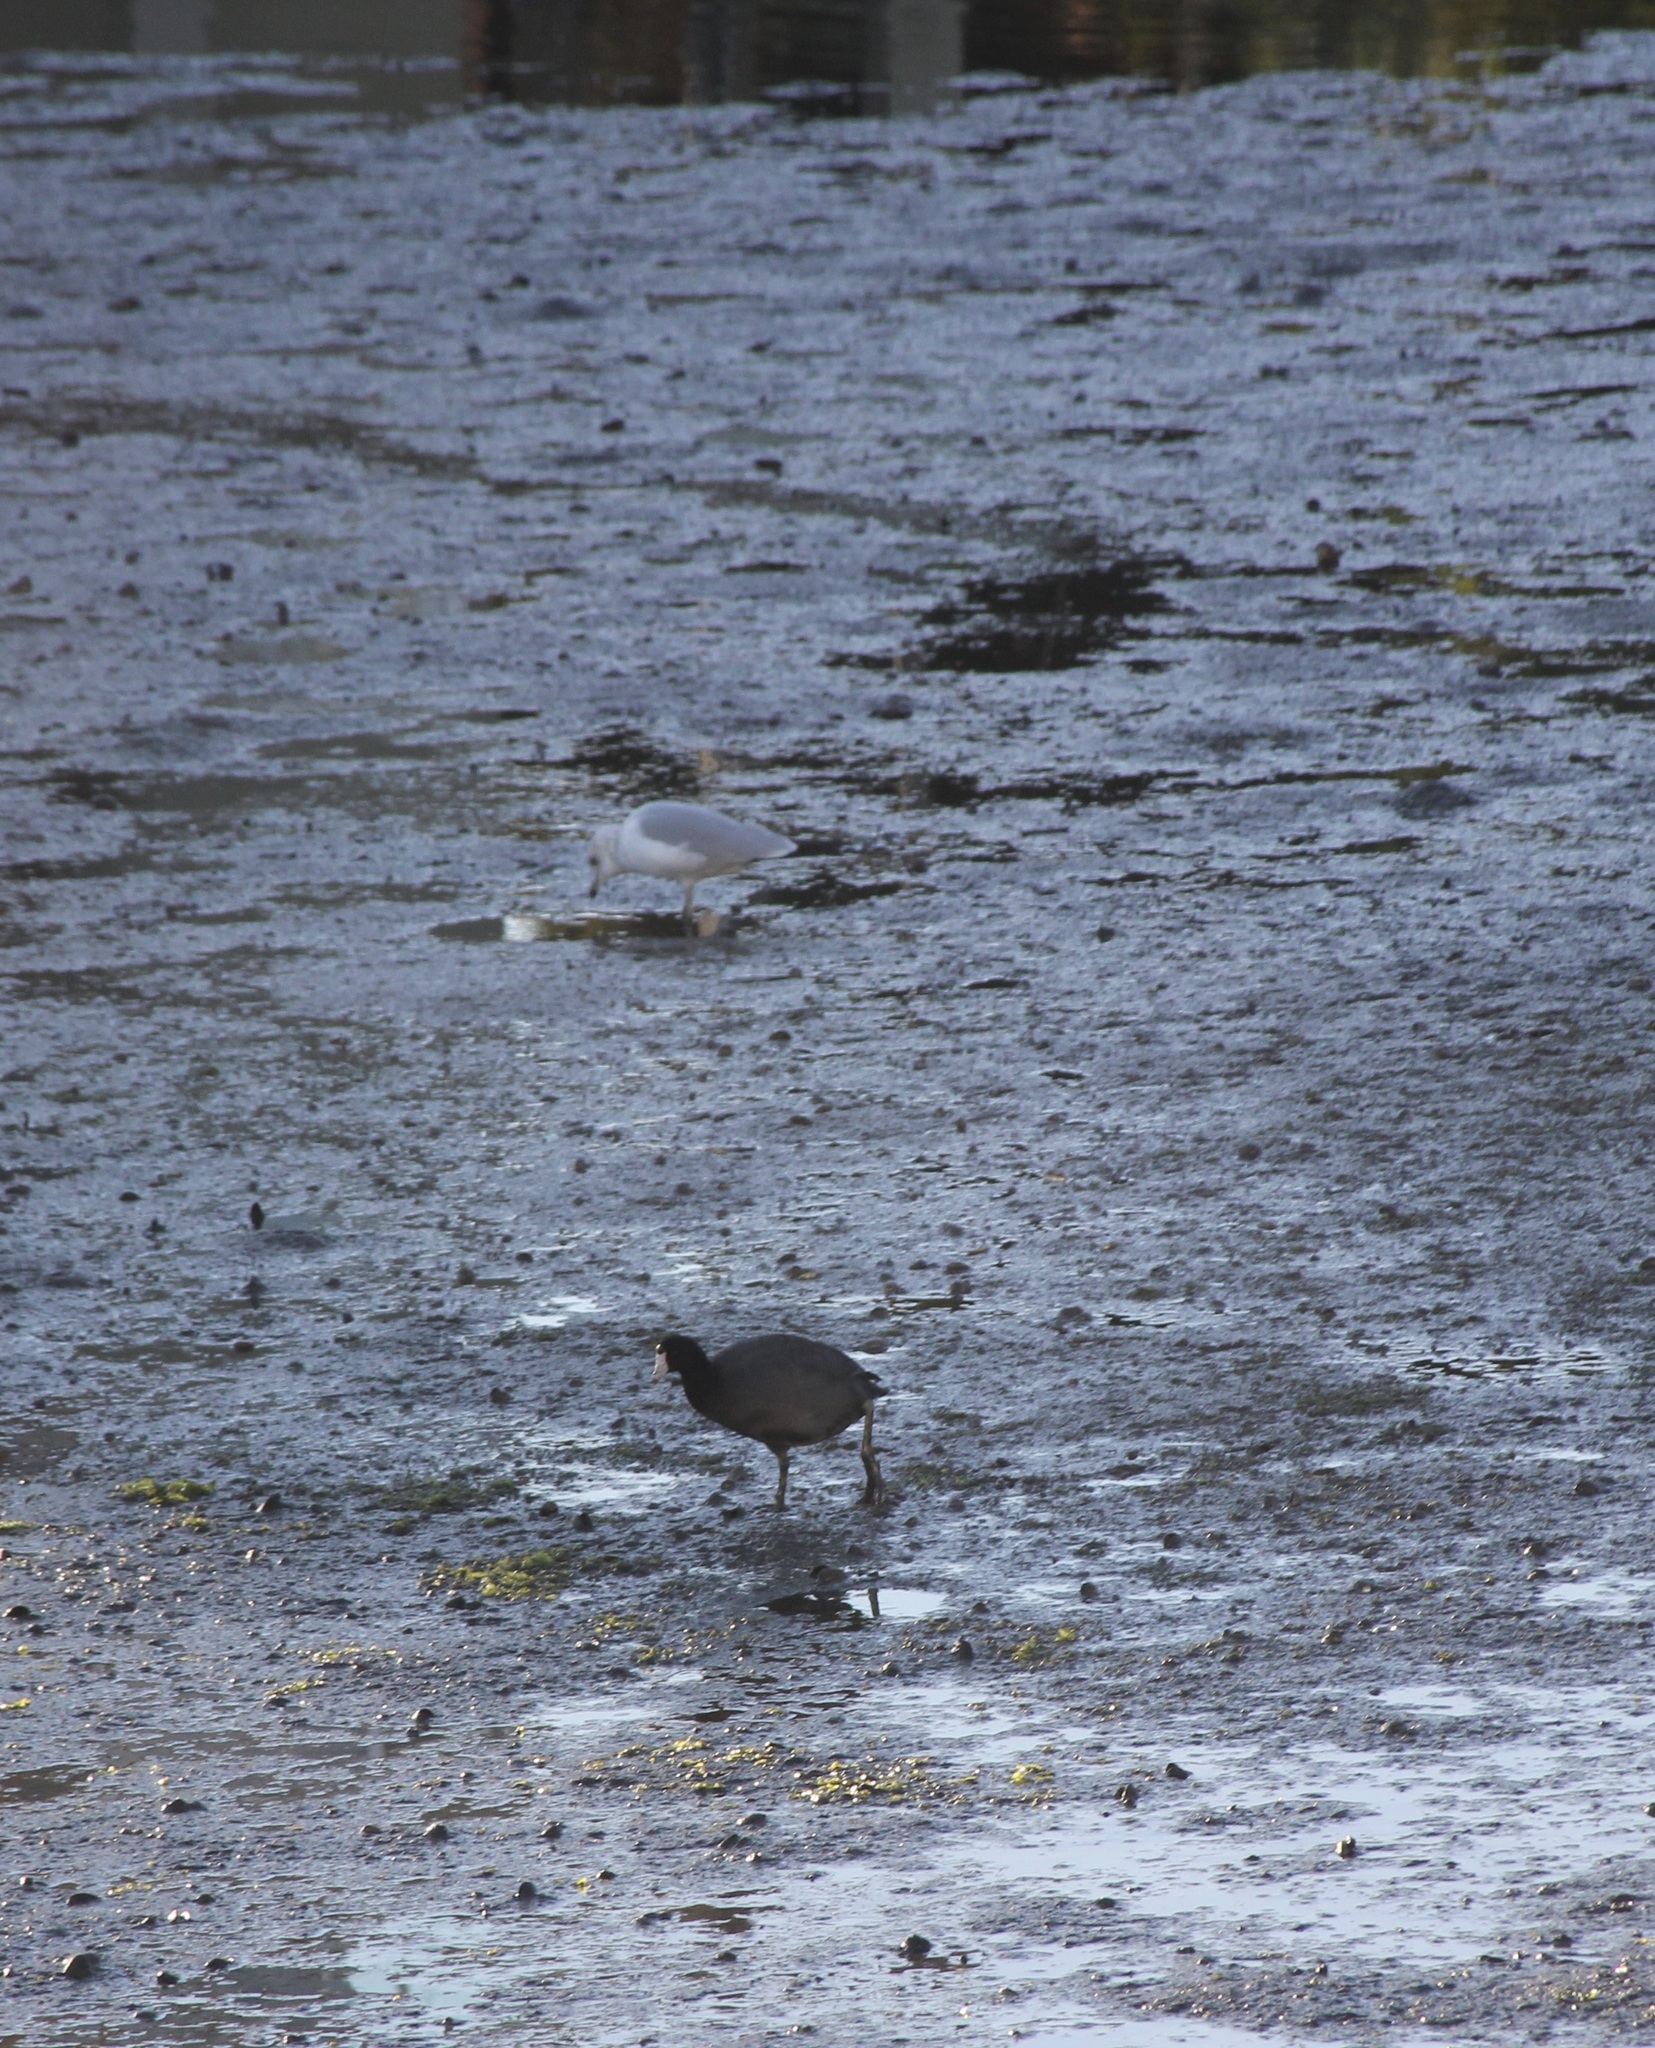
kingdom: Animalia
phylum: Chordata
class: Aves
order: Gruiformes
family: Rallidae
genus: Fulica
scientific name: Fulica americana
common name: American coot
